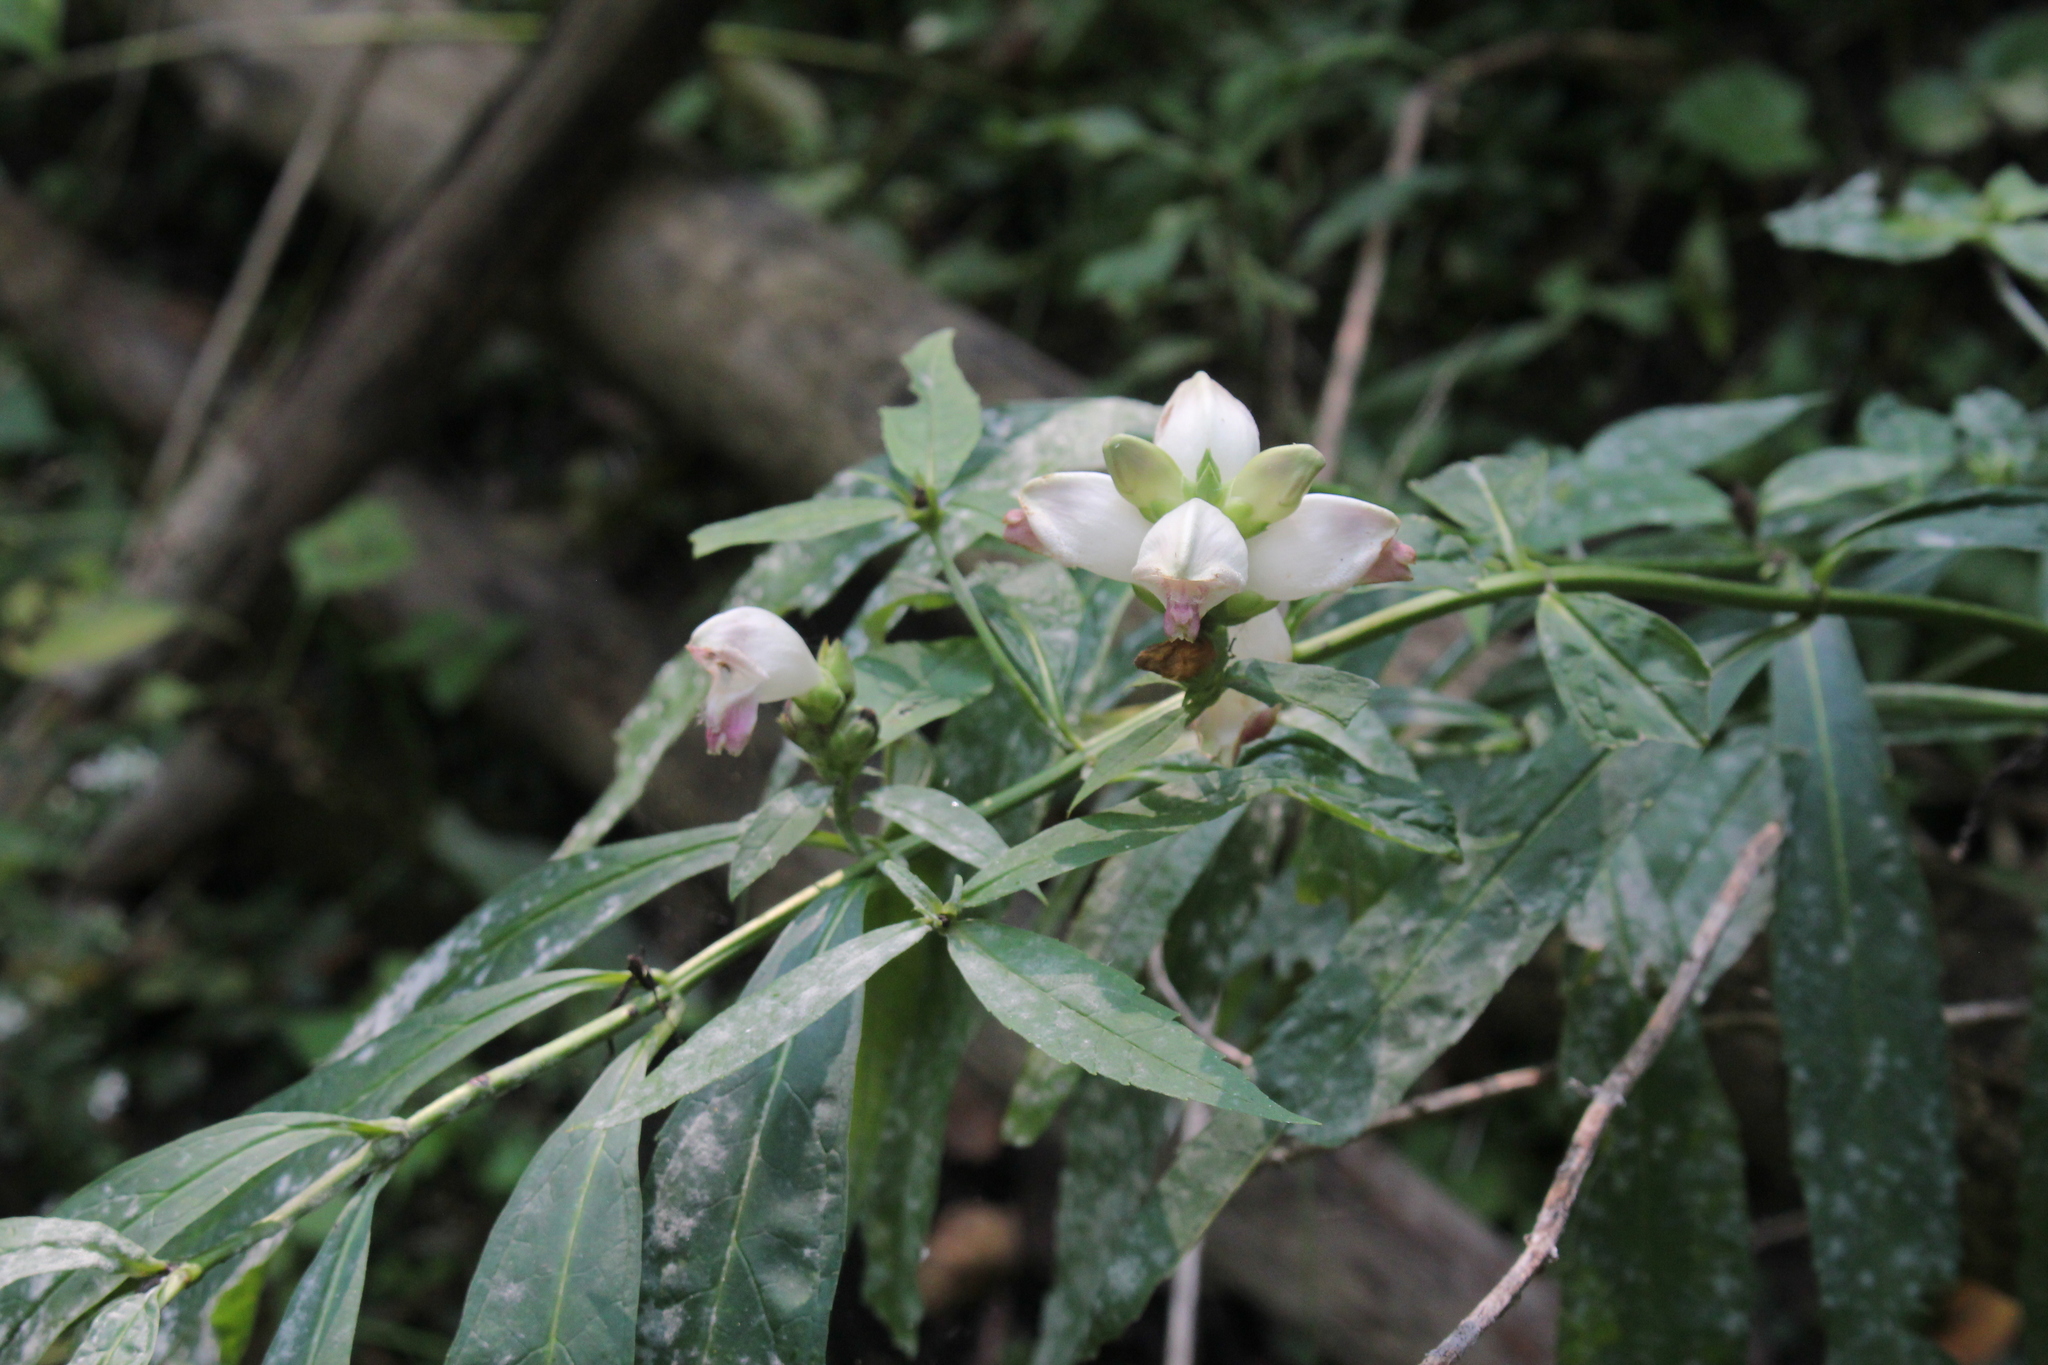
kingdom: Plantae
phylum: Tracheophyta
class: Magnoliopsida
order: Lamiales
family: Plantaginaceae
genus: Chelone
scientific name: Chelone glabra
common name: Snakehead
